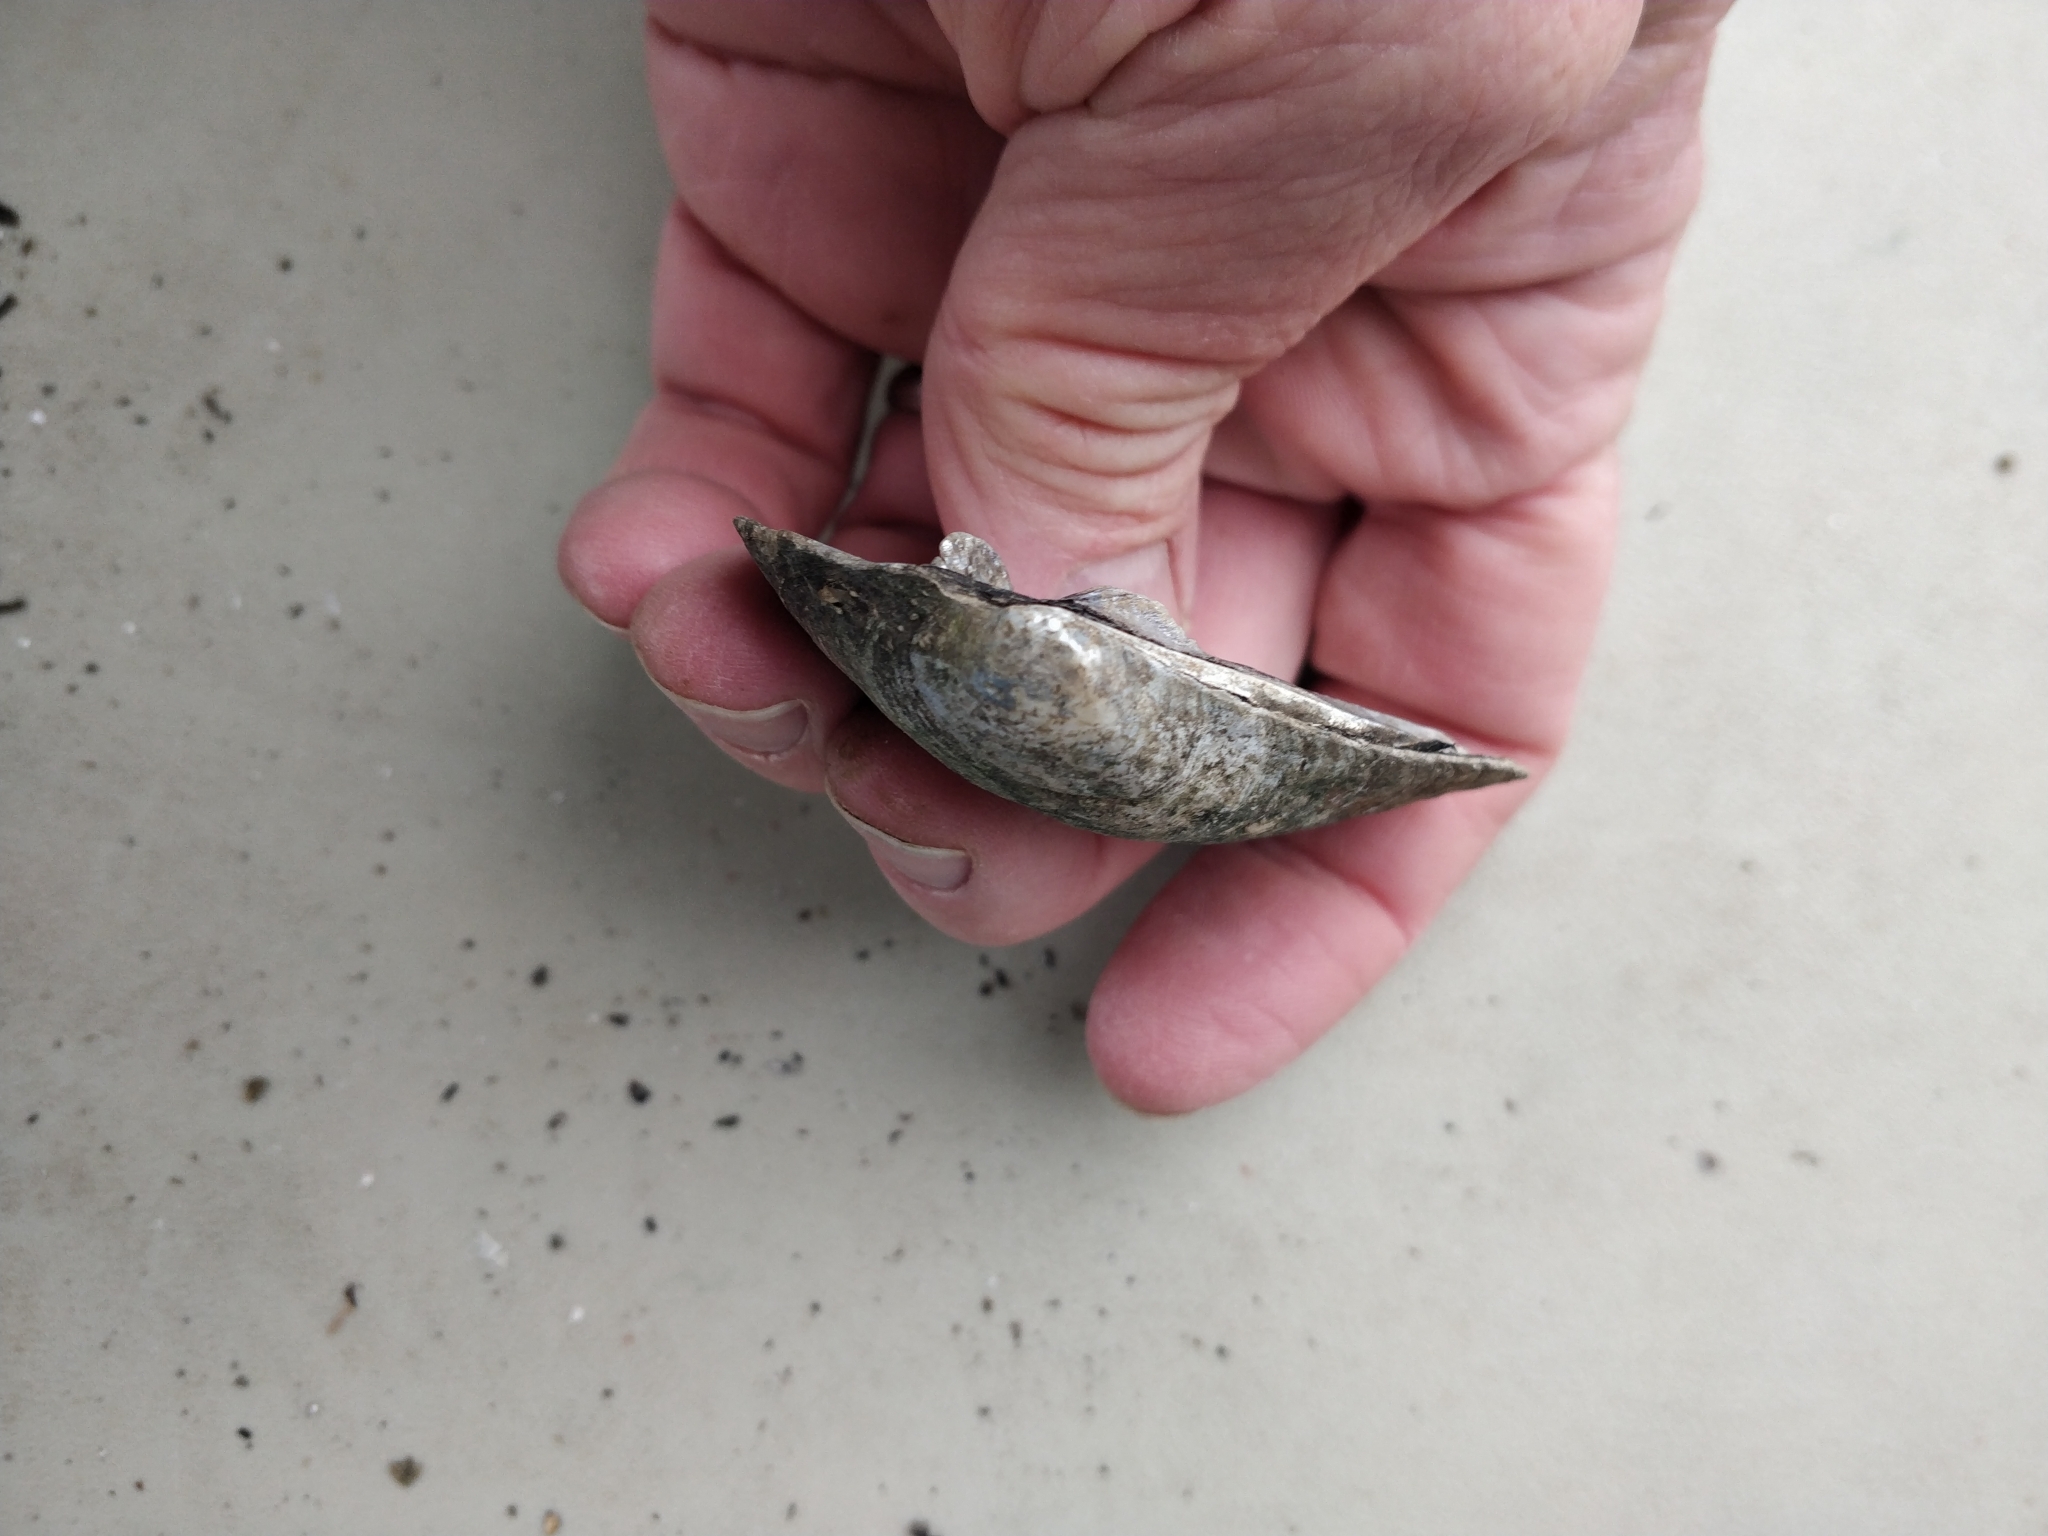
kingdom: Animalia
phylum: Mollusca
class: Bivalvia
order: Unionida
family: Unionidae
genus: Amblema
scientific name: Amblema plicata
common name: Threeridge
